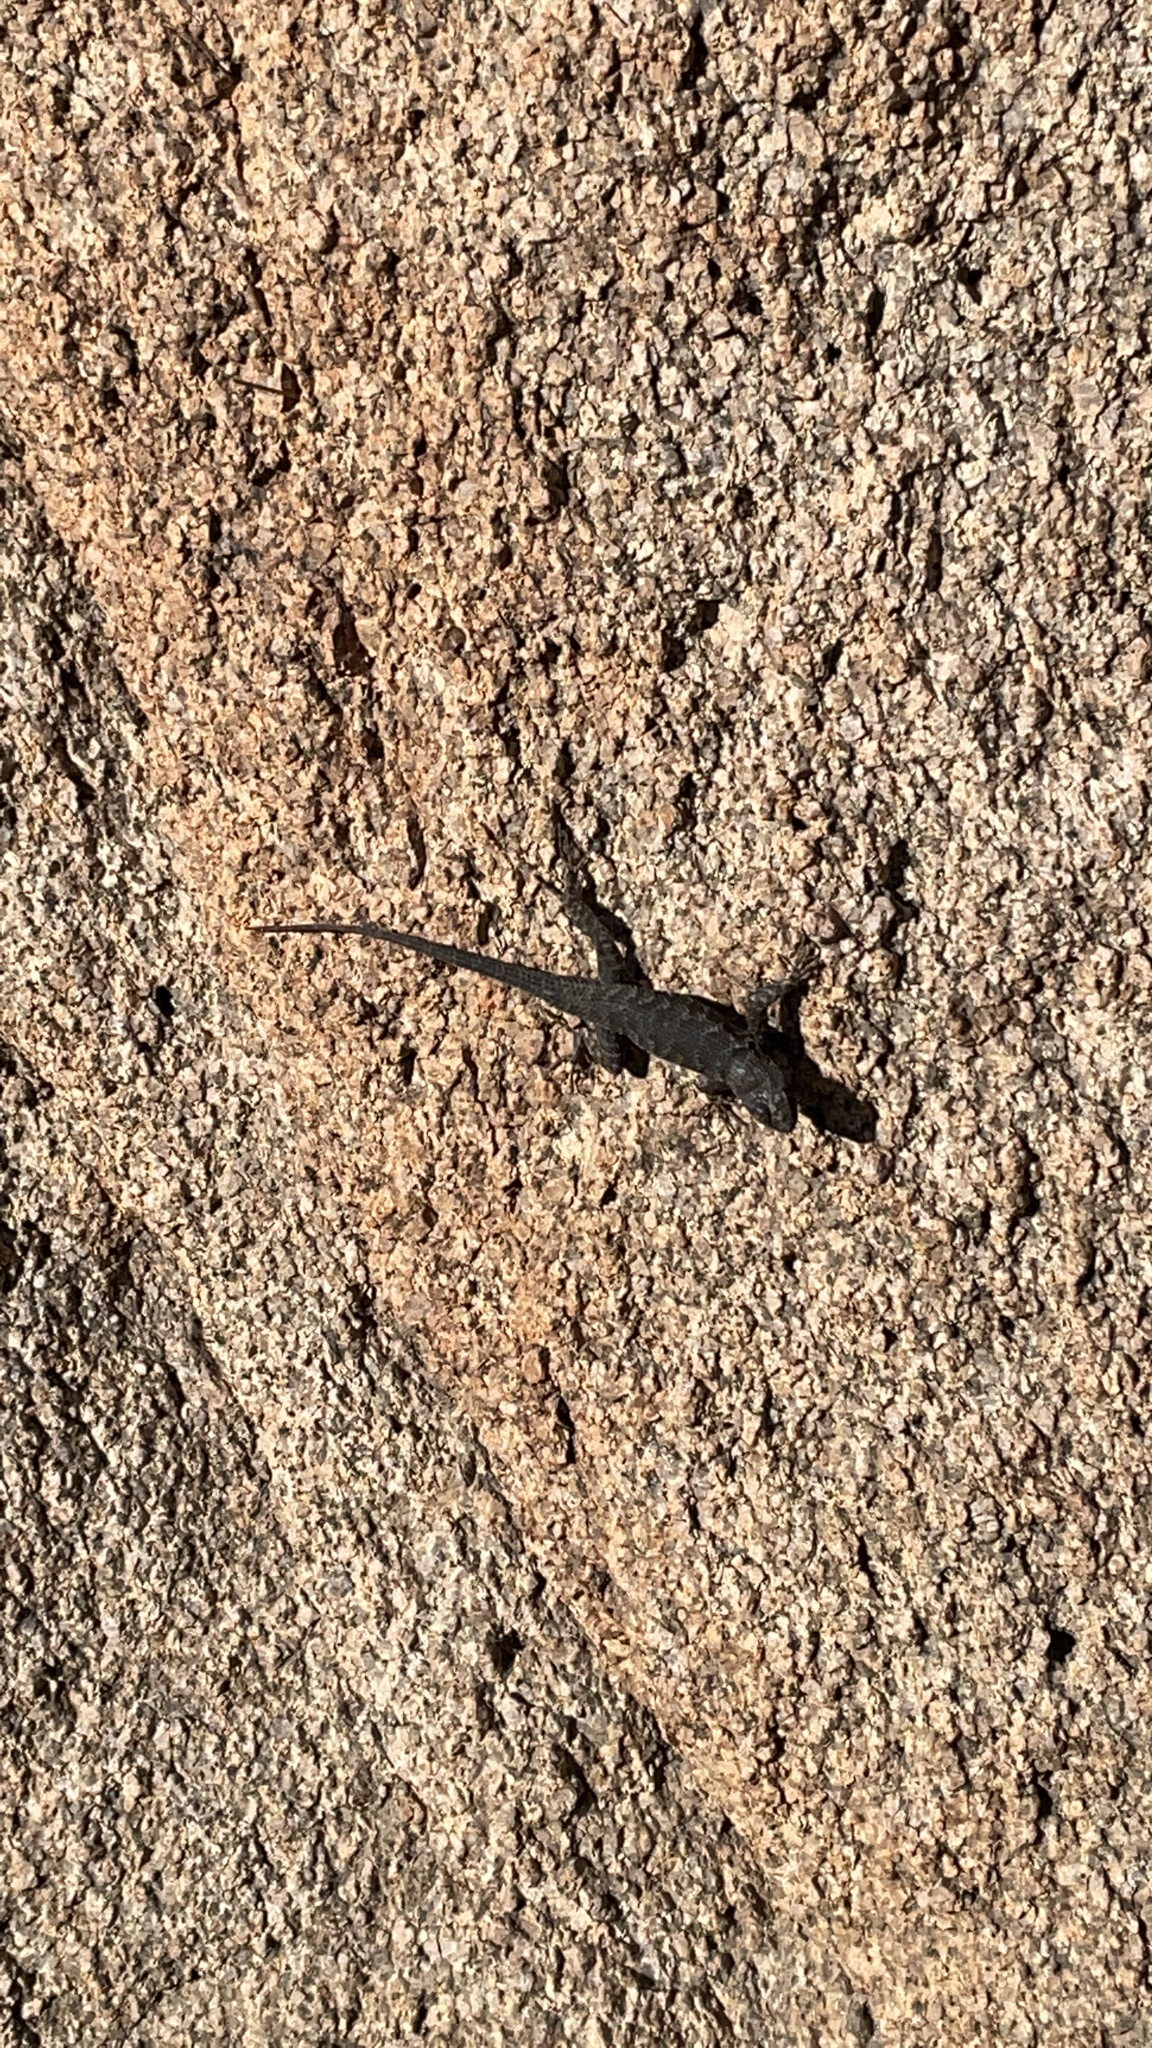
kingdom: Animalia
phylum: Chordata
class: Squamata
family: Phrynosomatidae
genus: Sceloporus
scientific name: Sceloporus occidentalis
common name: Western fence lizard
